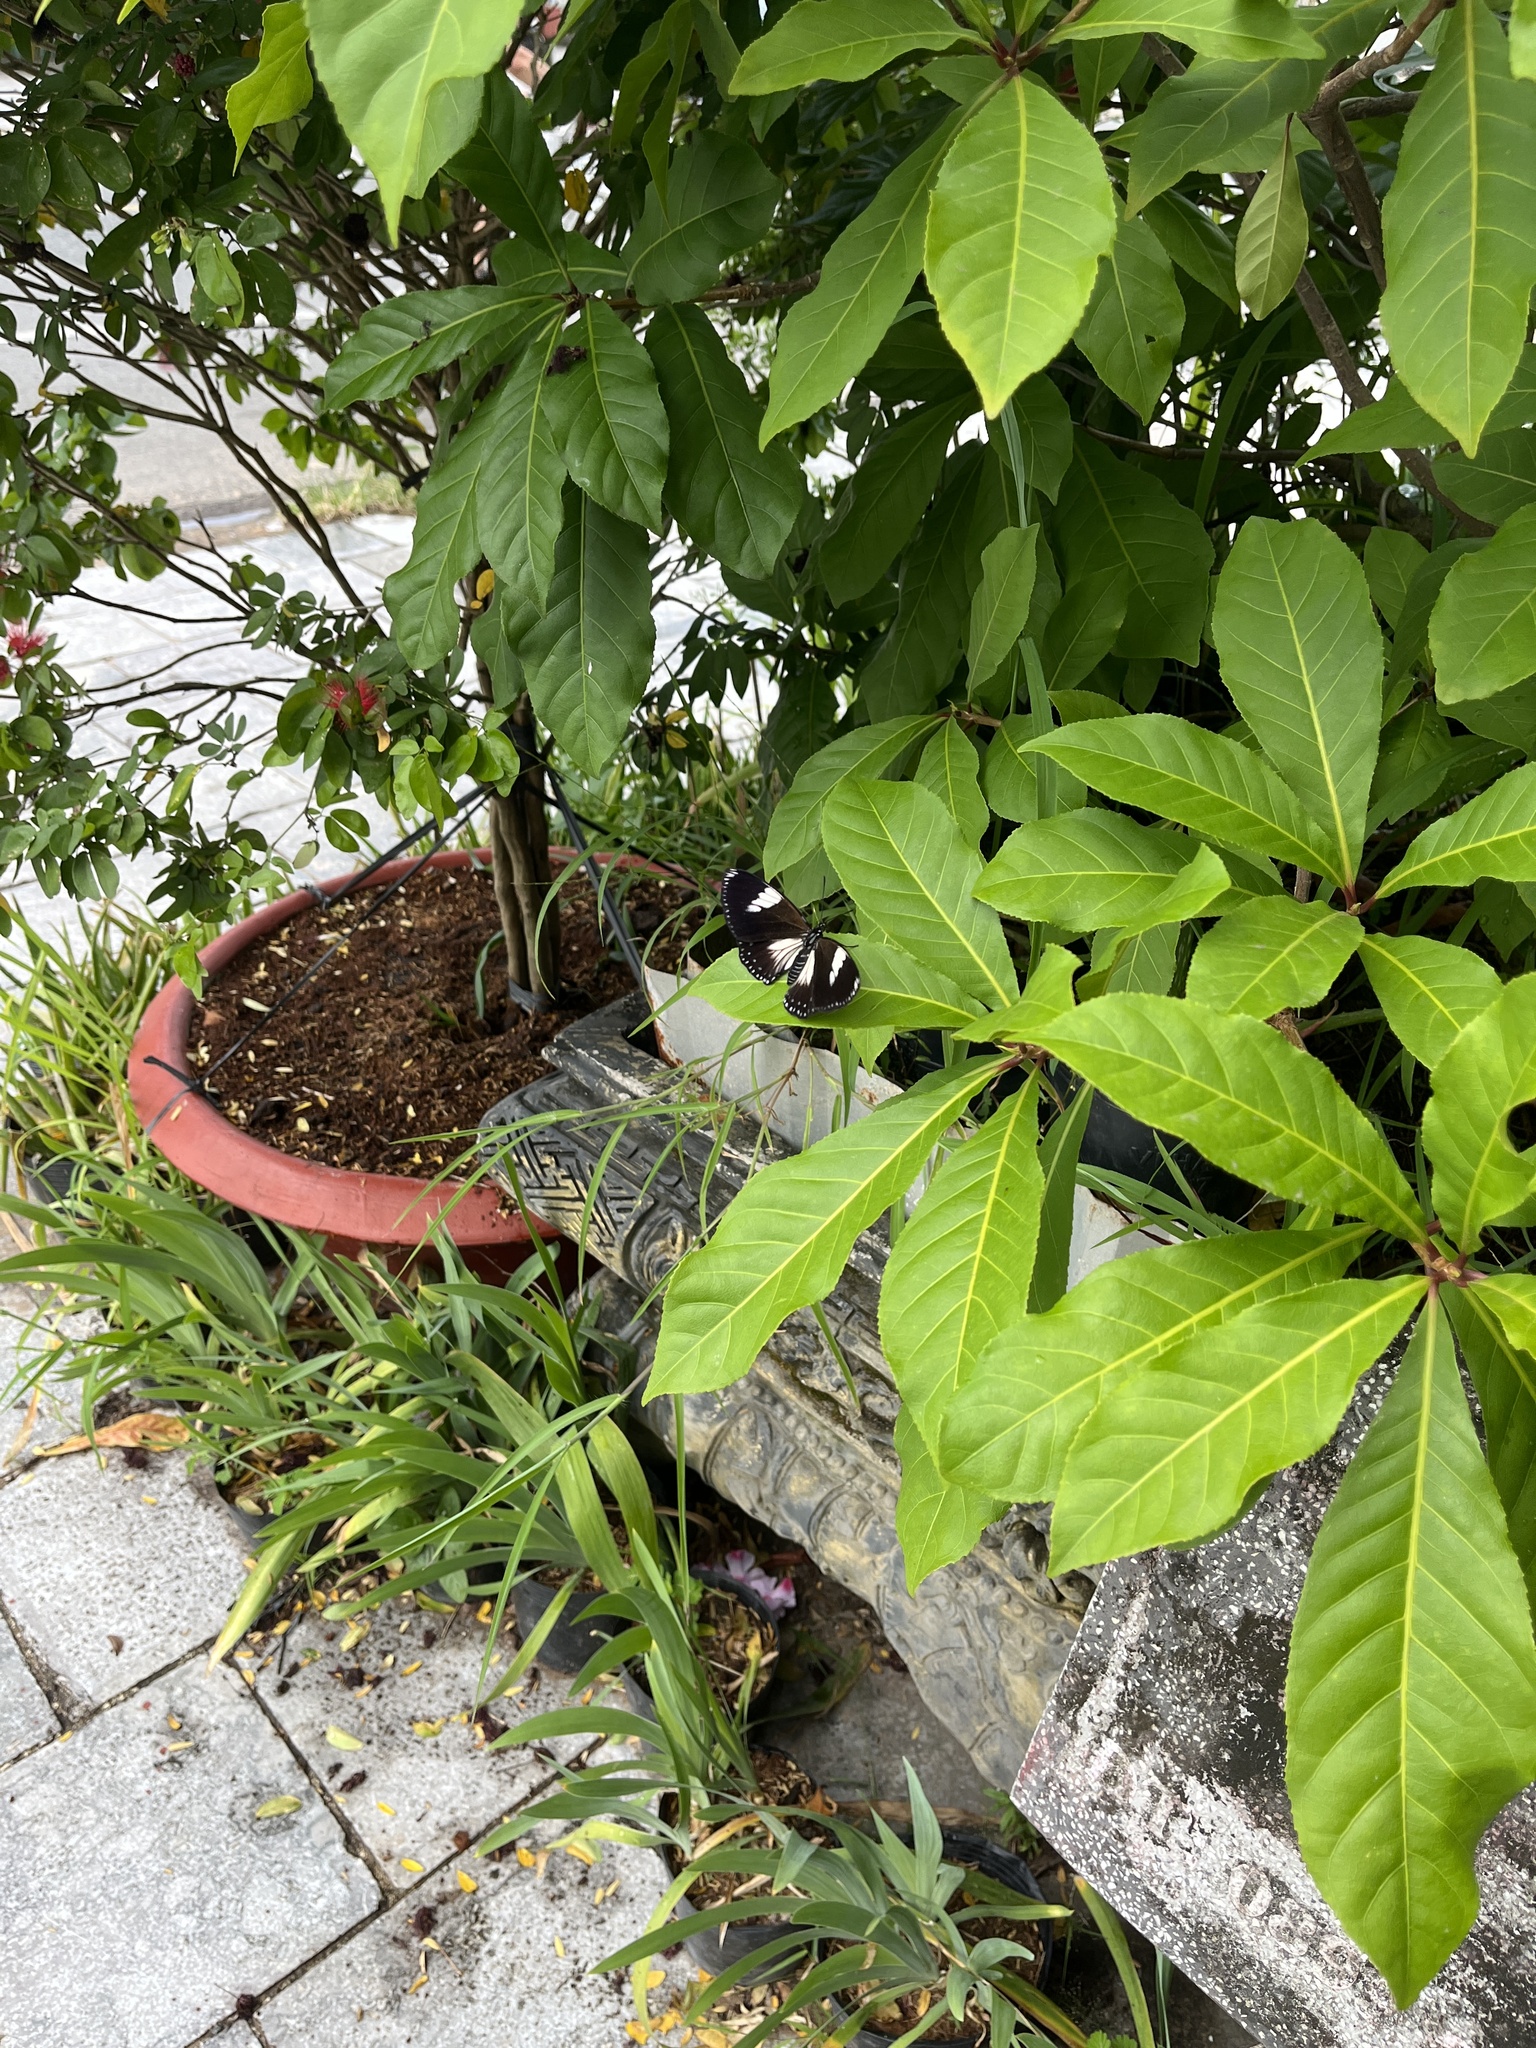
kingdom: Animalia
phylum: Arthropoda
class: Insecta
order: Lepidoptera
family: Nymphalidae
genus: Euploea
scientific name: Euploea radamanthus
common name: Magpie crow butterfly
